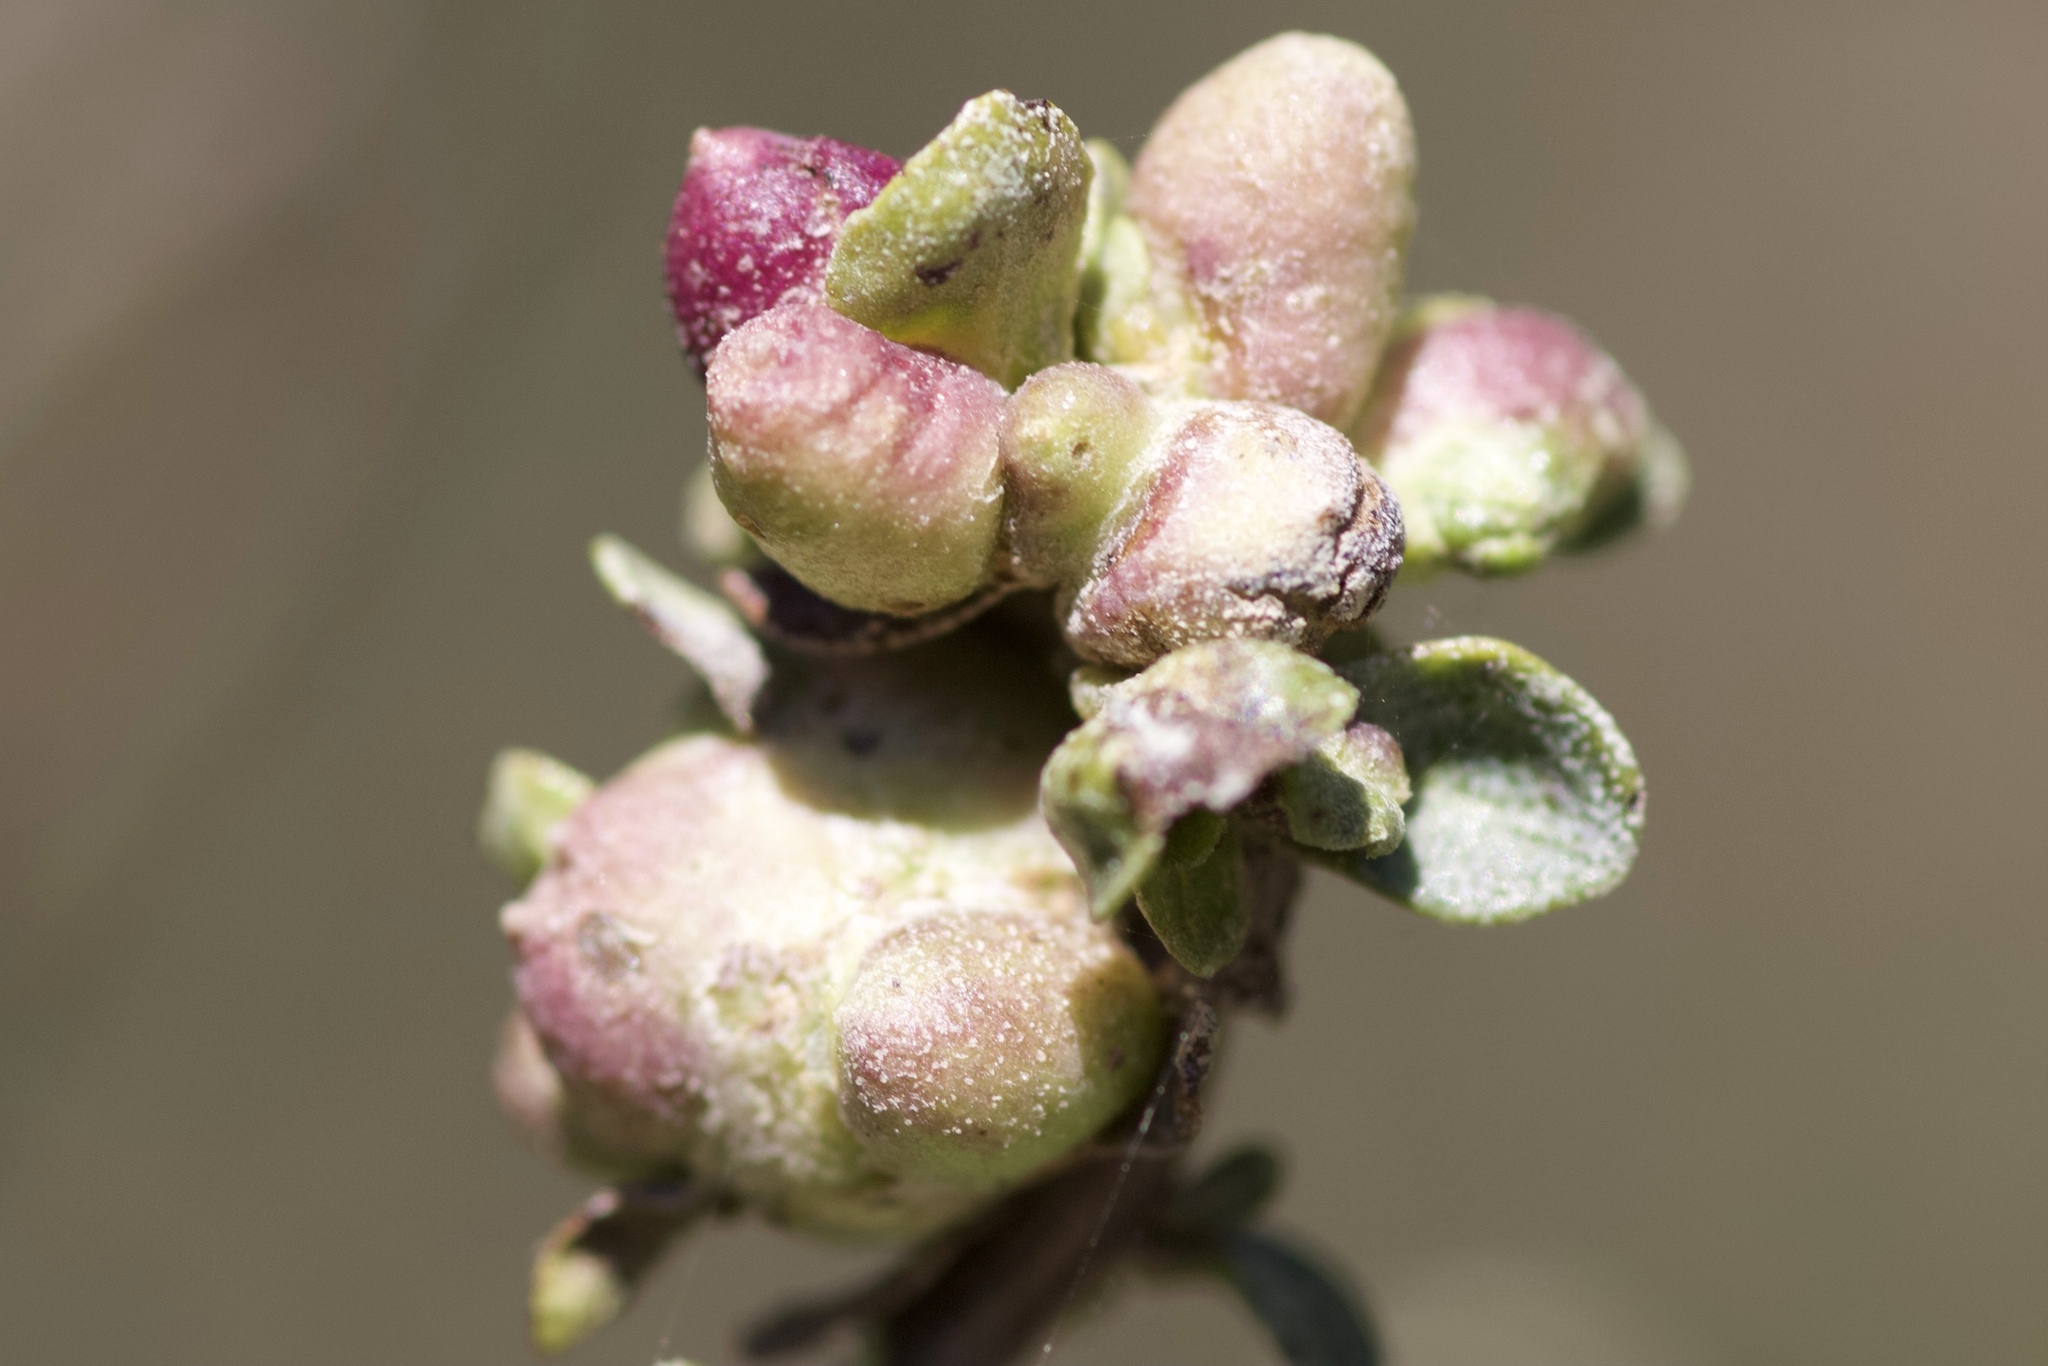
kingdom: Animalia
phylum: Arthropoda
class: Insecta
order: Diptera
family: Cecidomyiidae
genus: Rhopalomyia
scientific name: Rhopalomyia californica
